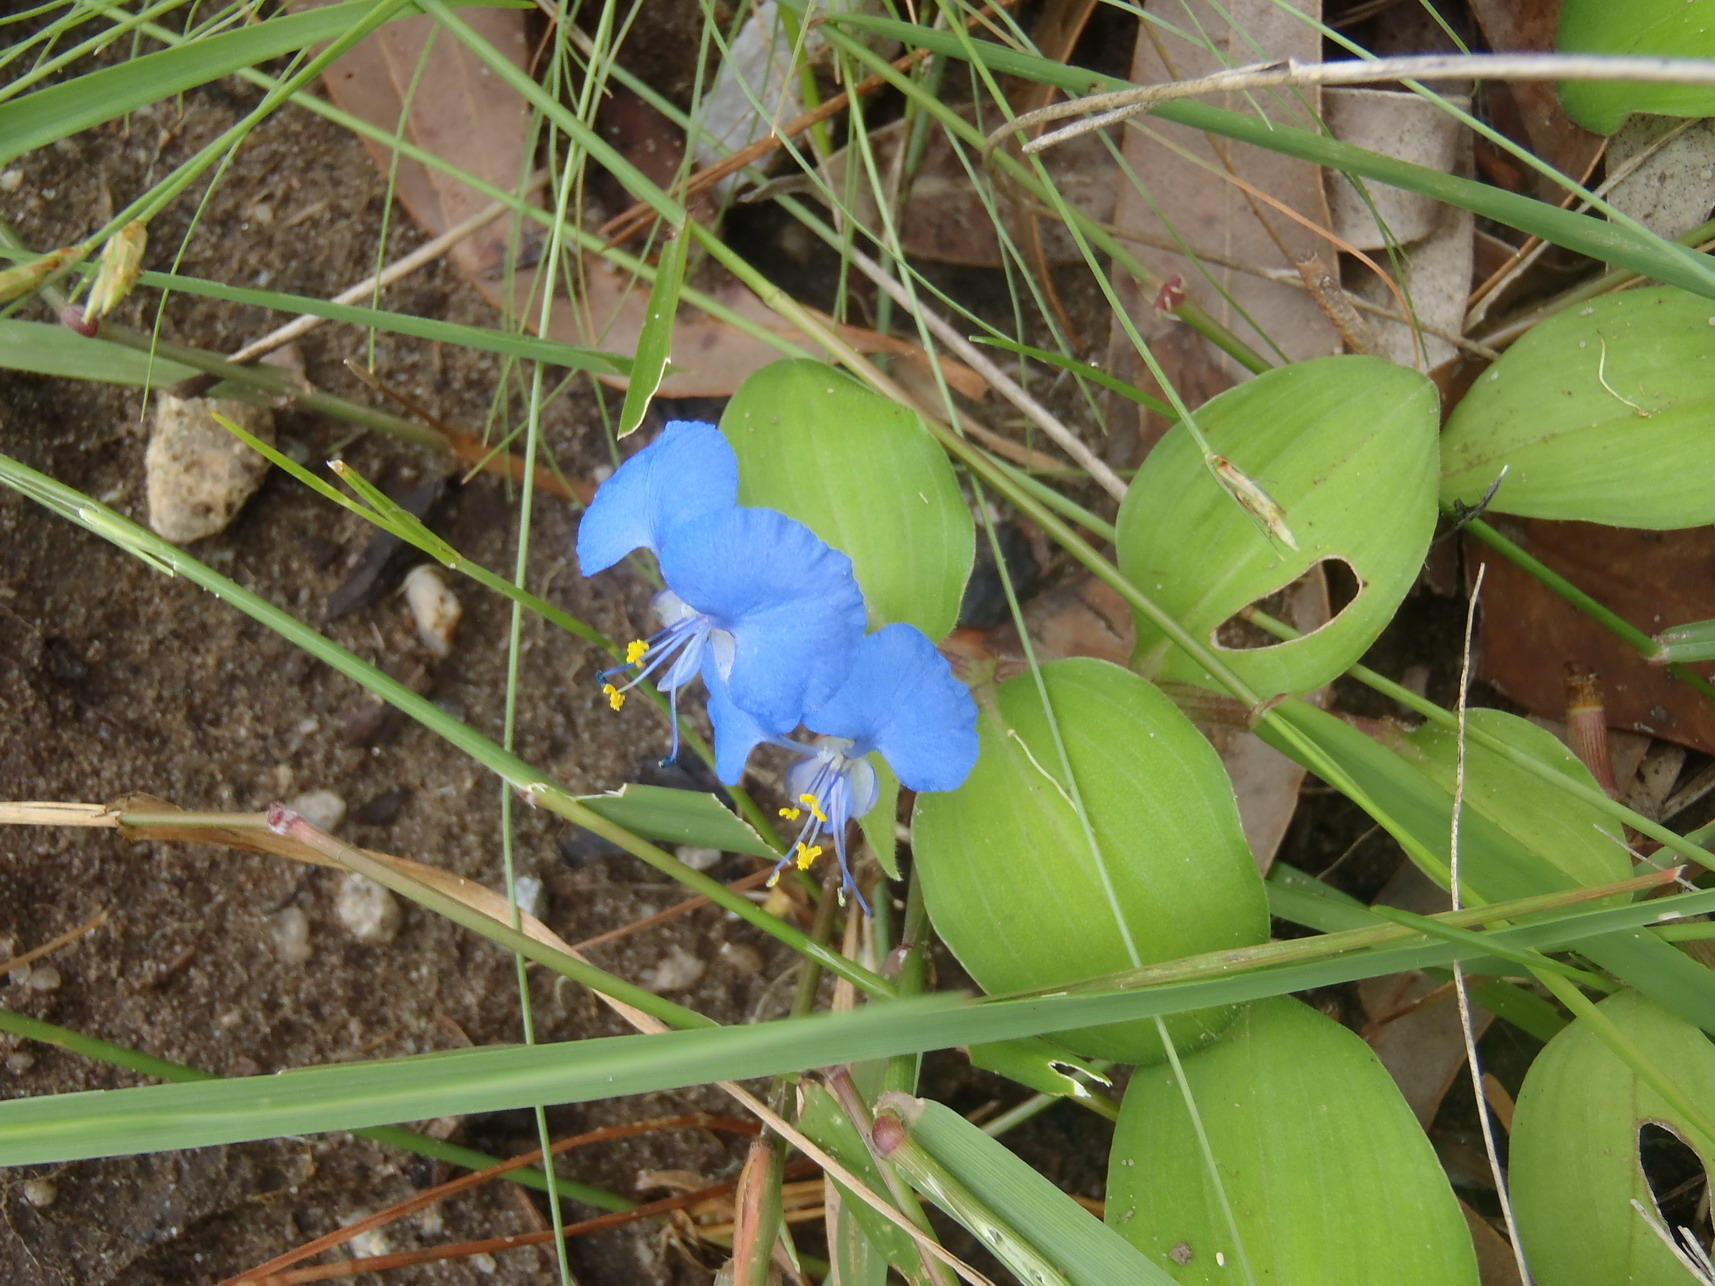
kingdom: Plantae
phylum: Tracheophyta
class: Liliopsida
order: Commelinales
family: Commelinaceae
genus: Commelina
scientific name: Commelina benghalensis
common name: Jio
